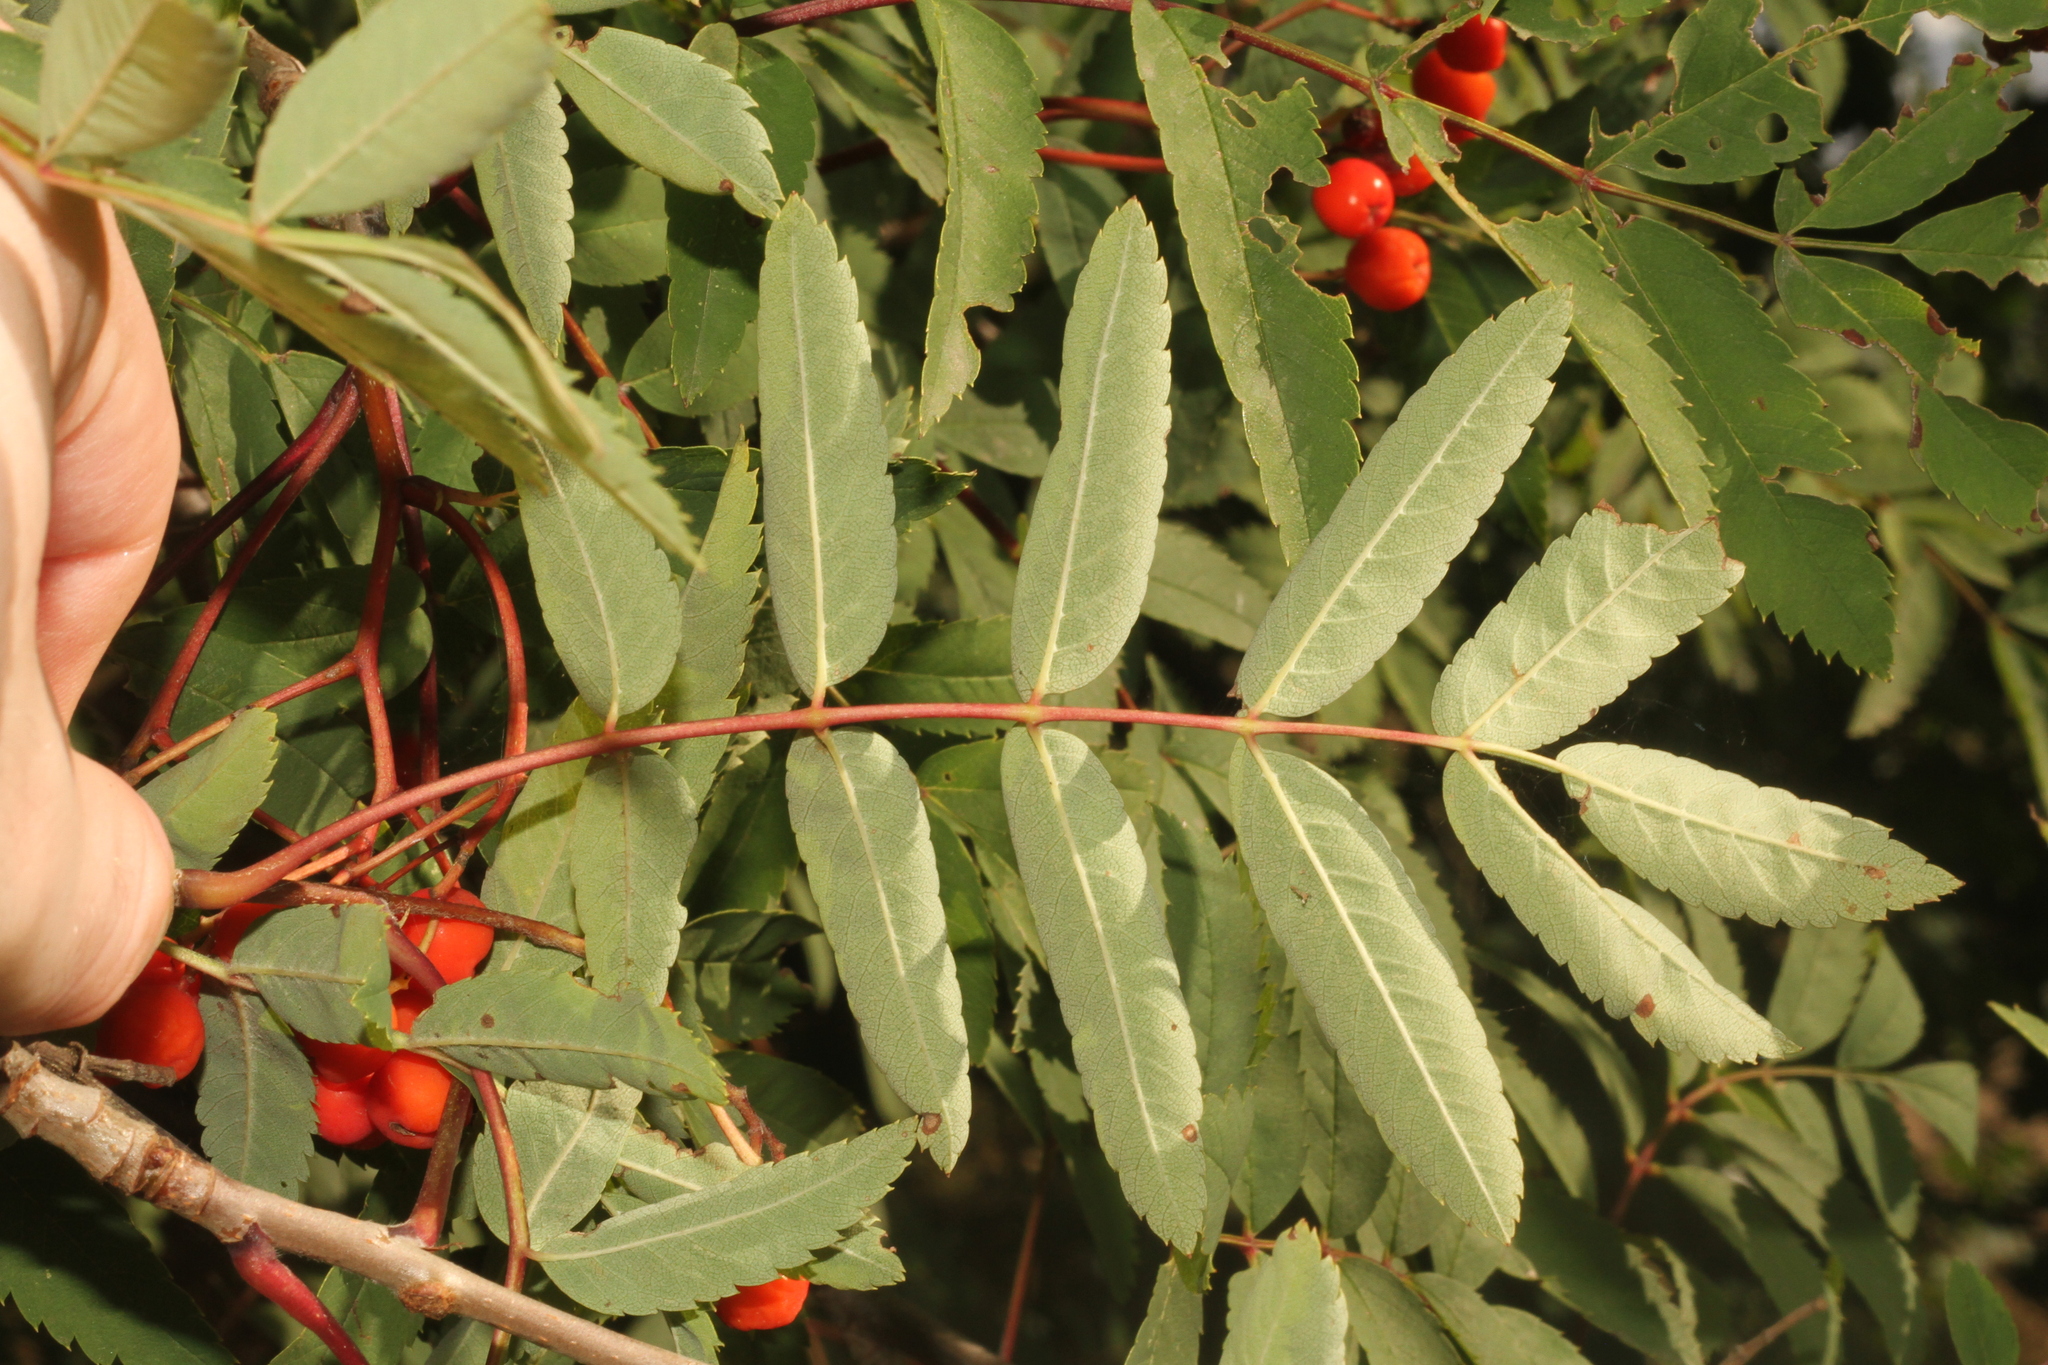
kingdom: Plantae
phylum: Tracheophyta
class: Magnoliopsida
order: Rosales
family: Rosaceae
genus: Sorbus
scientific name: Sorbus aucuparia
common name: Rowan
